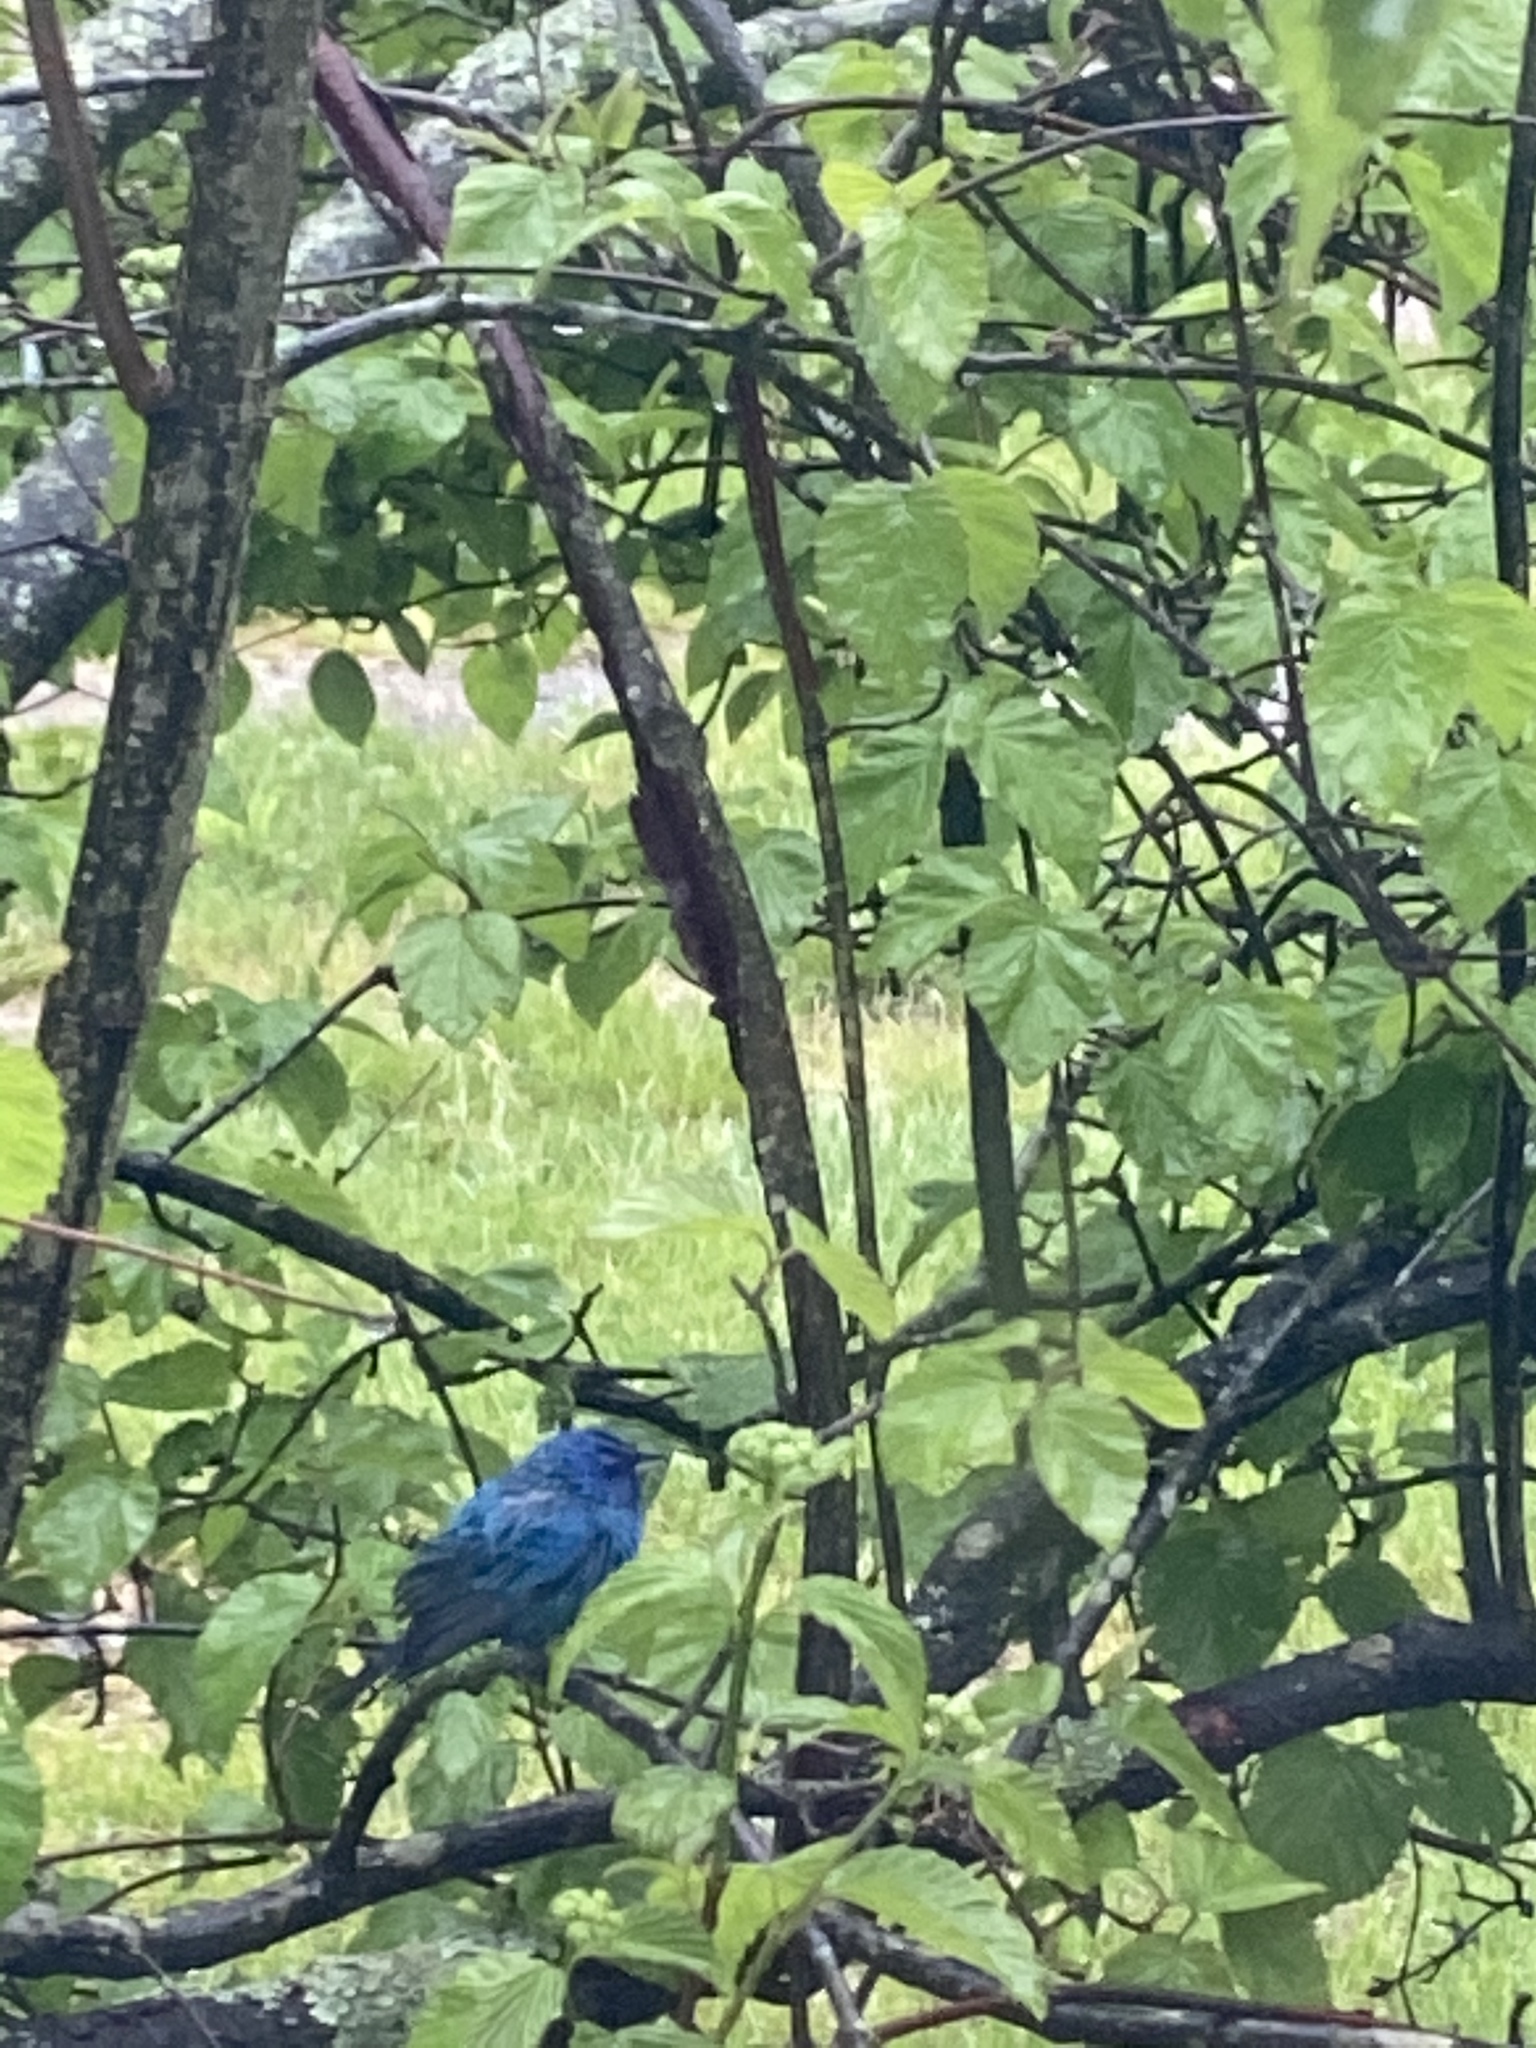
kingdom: Animalia
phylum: Chordata
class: Aves
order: Passeriformes
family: Cardinalidae
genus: Passerina
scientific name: Passerina cyanea
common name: Indigo bunting
